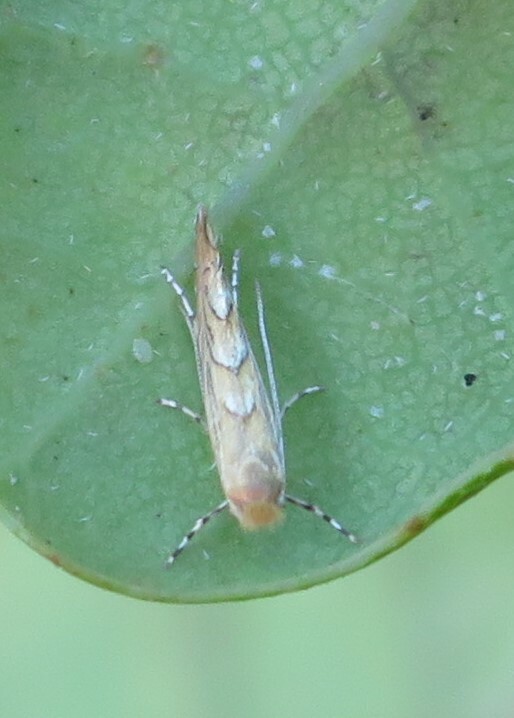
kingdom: Animalia
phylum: Arthropoda
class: Insecta
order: Lepidoptera
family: Gracillariidae
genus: Phyllonorycter
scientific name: Phyllonorycter messaniella
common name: Garden midget
